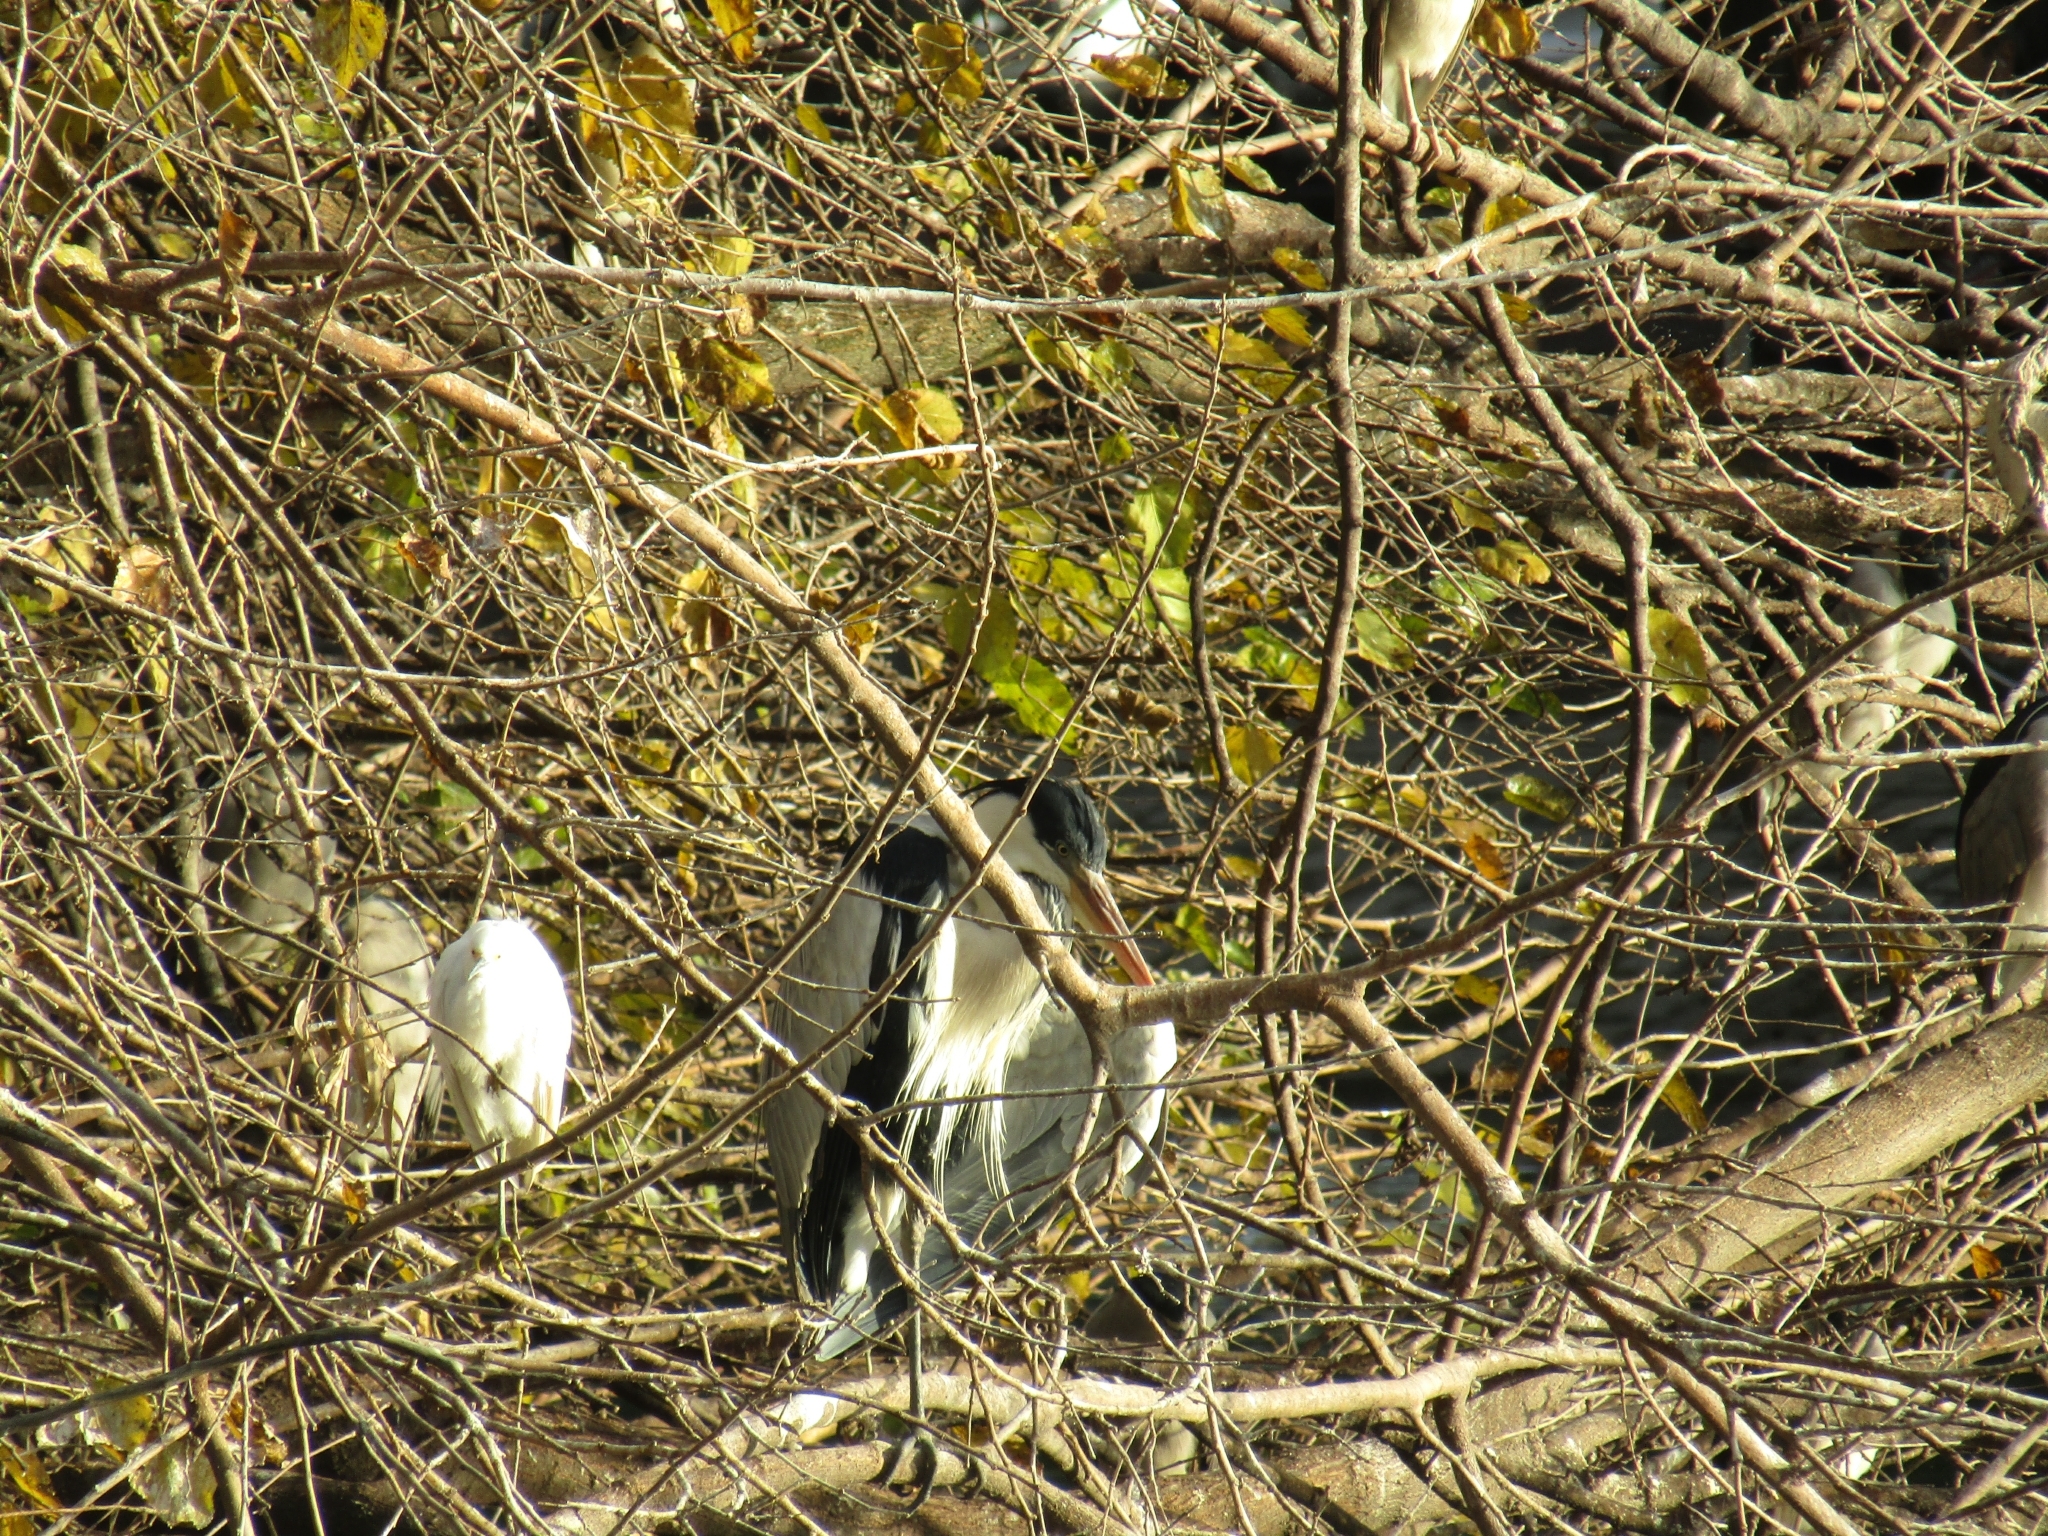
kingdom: Animalia
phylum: Chordata
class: Aves
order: Pelecaniformes
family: Ardeidae
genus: Ardea
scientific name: Ardea cocoi
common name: Cocoi heron
